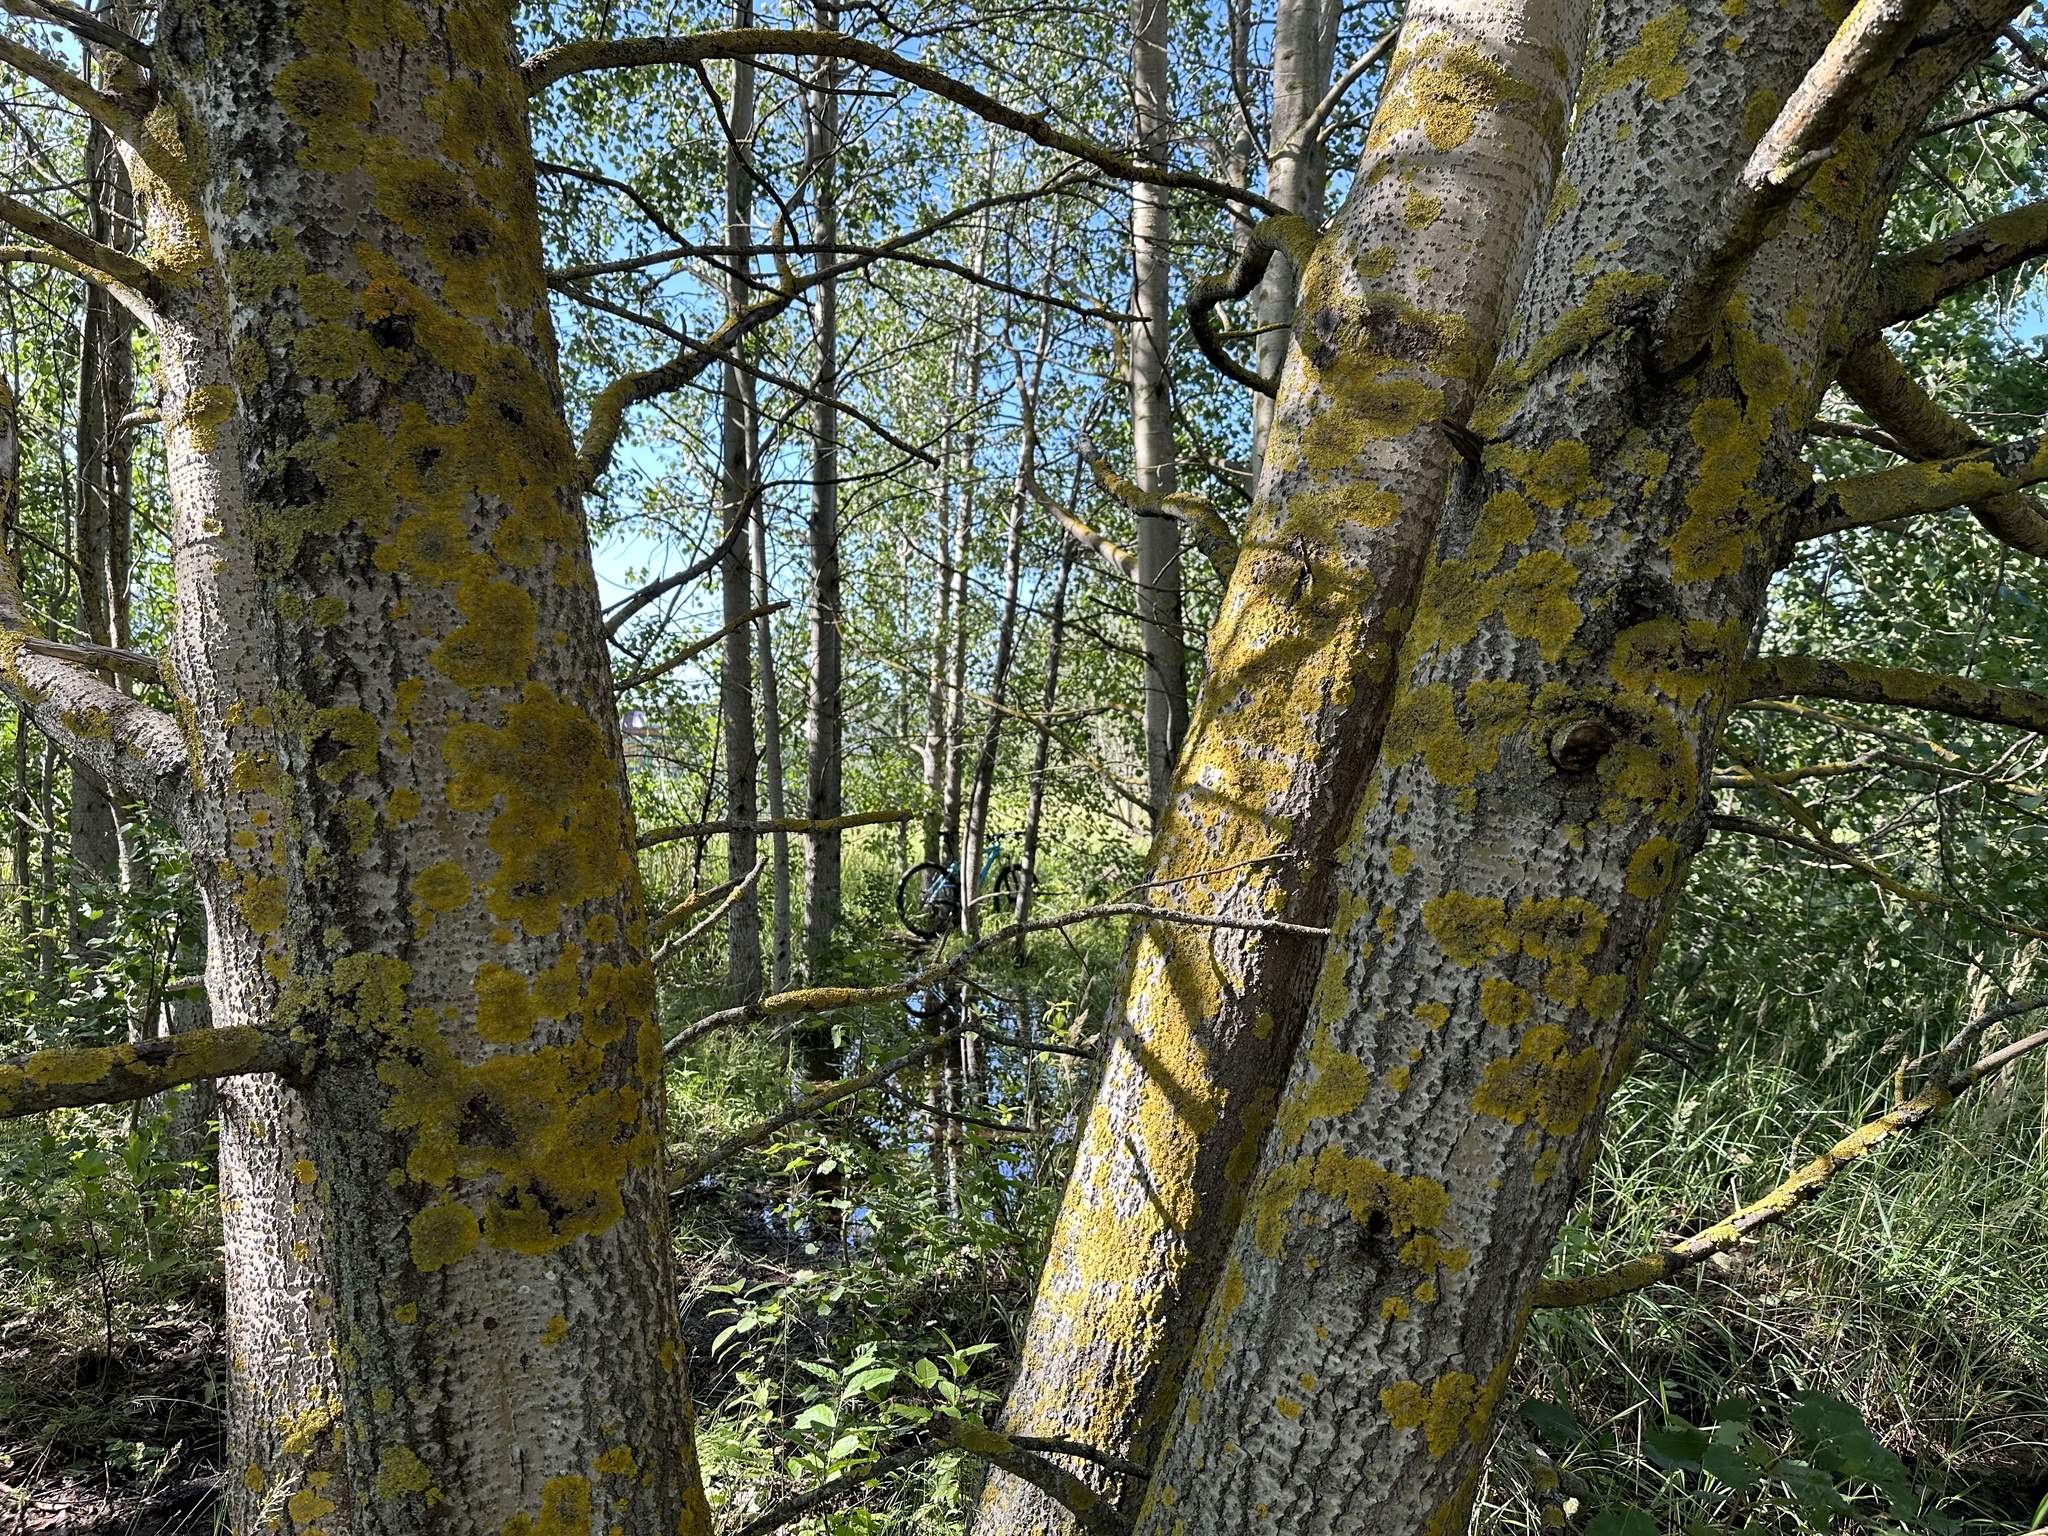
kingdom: Fungi
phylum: Ascomycota
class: Lecanoromycetes
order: Teloschistales
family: Teloschistaceae
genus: Xanthoria
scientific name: Xanthoria parietina
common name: Common orange lichen
